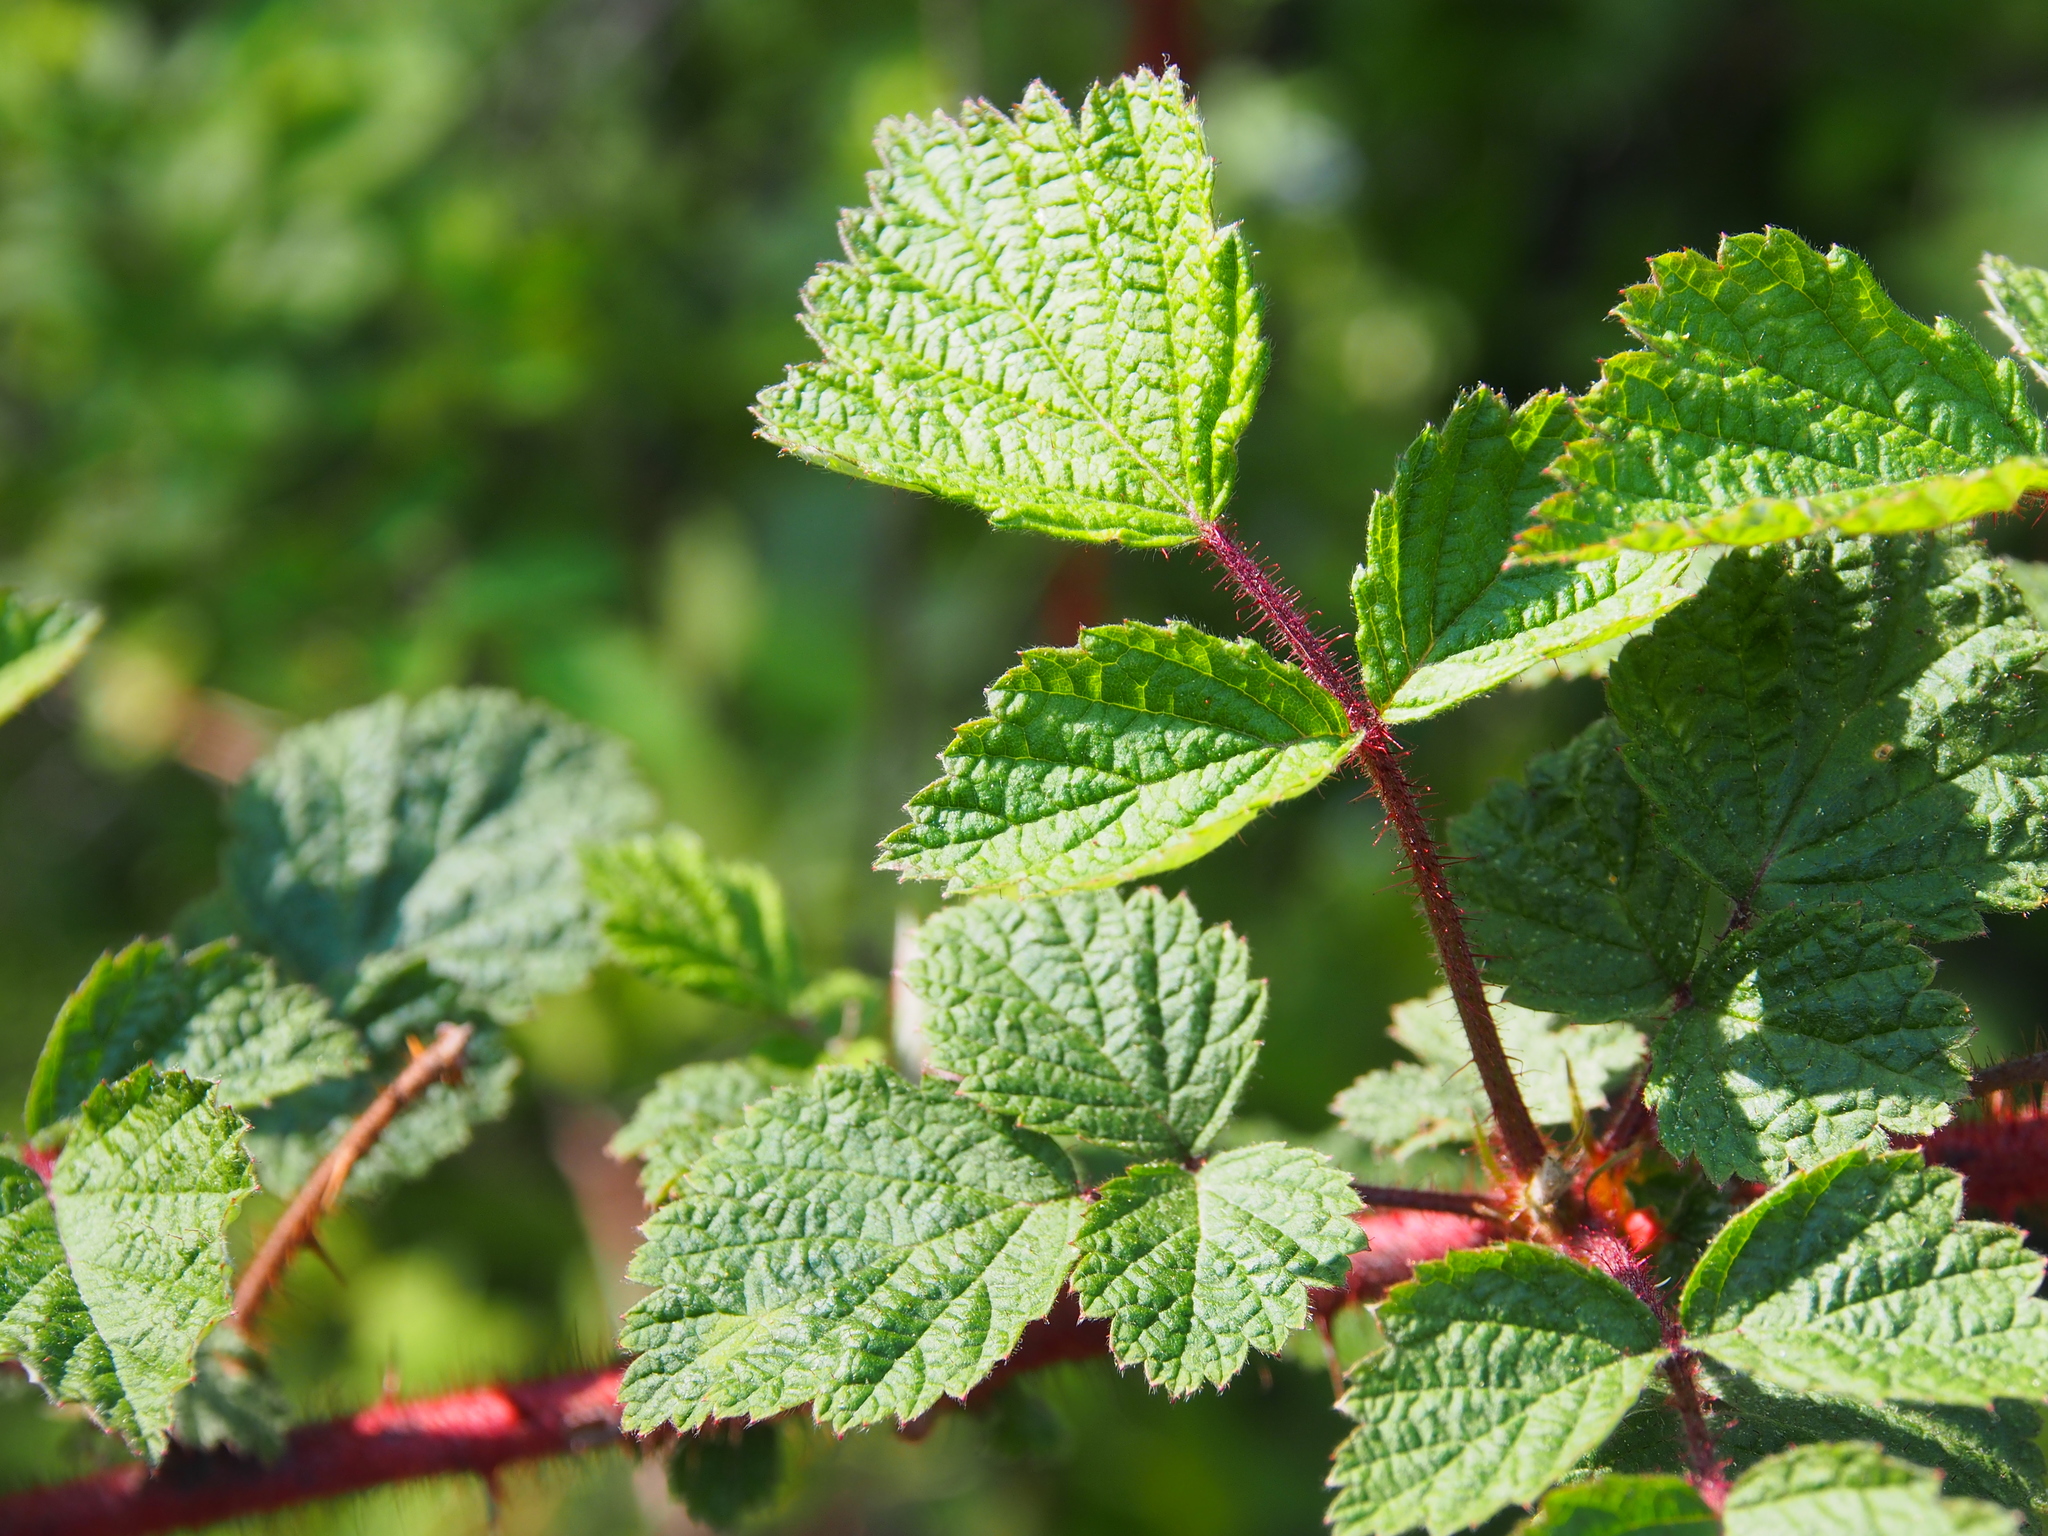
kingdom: Plantae
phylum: Tracheophyta
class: Magnoliopsida
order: Rosales
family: Rosaceae
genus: Rubus
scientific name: Rubus phoenicolasius
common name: Japanese wineberry
